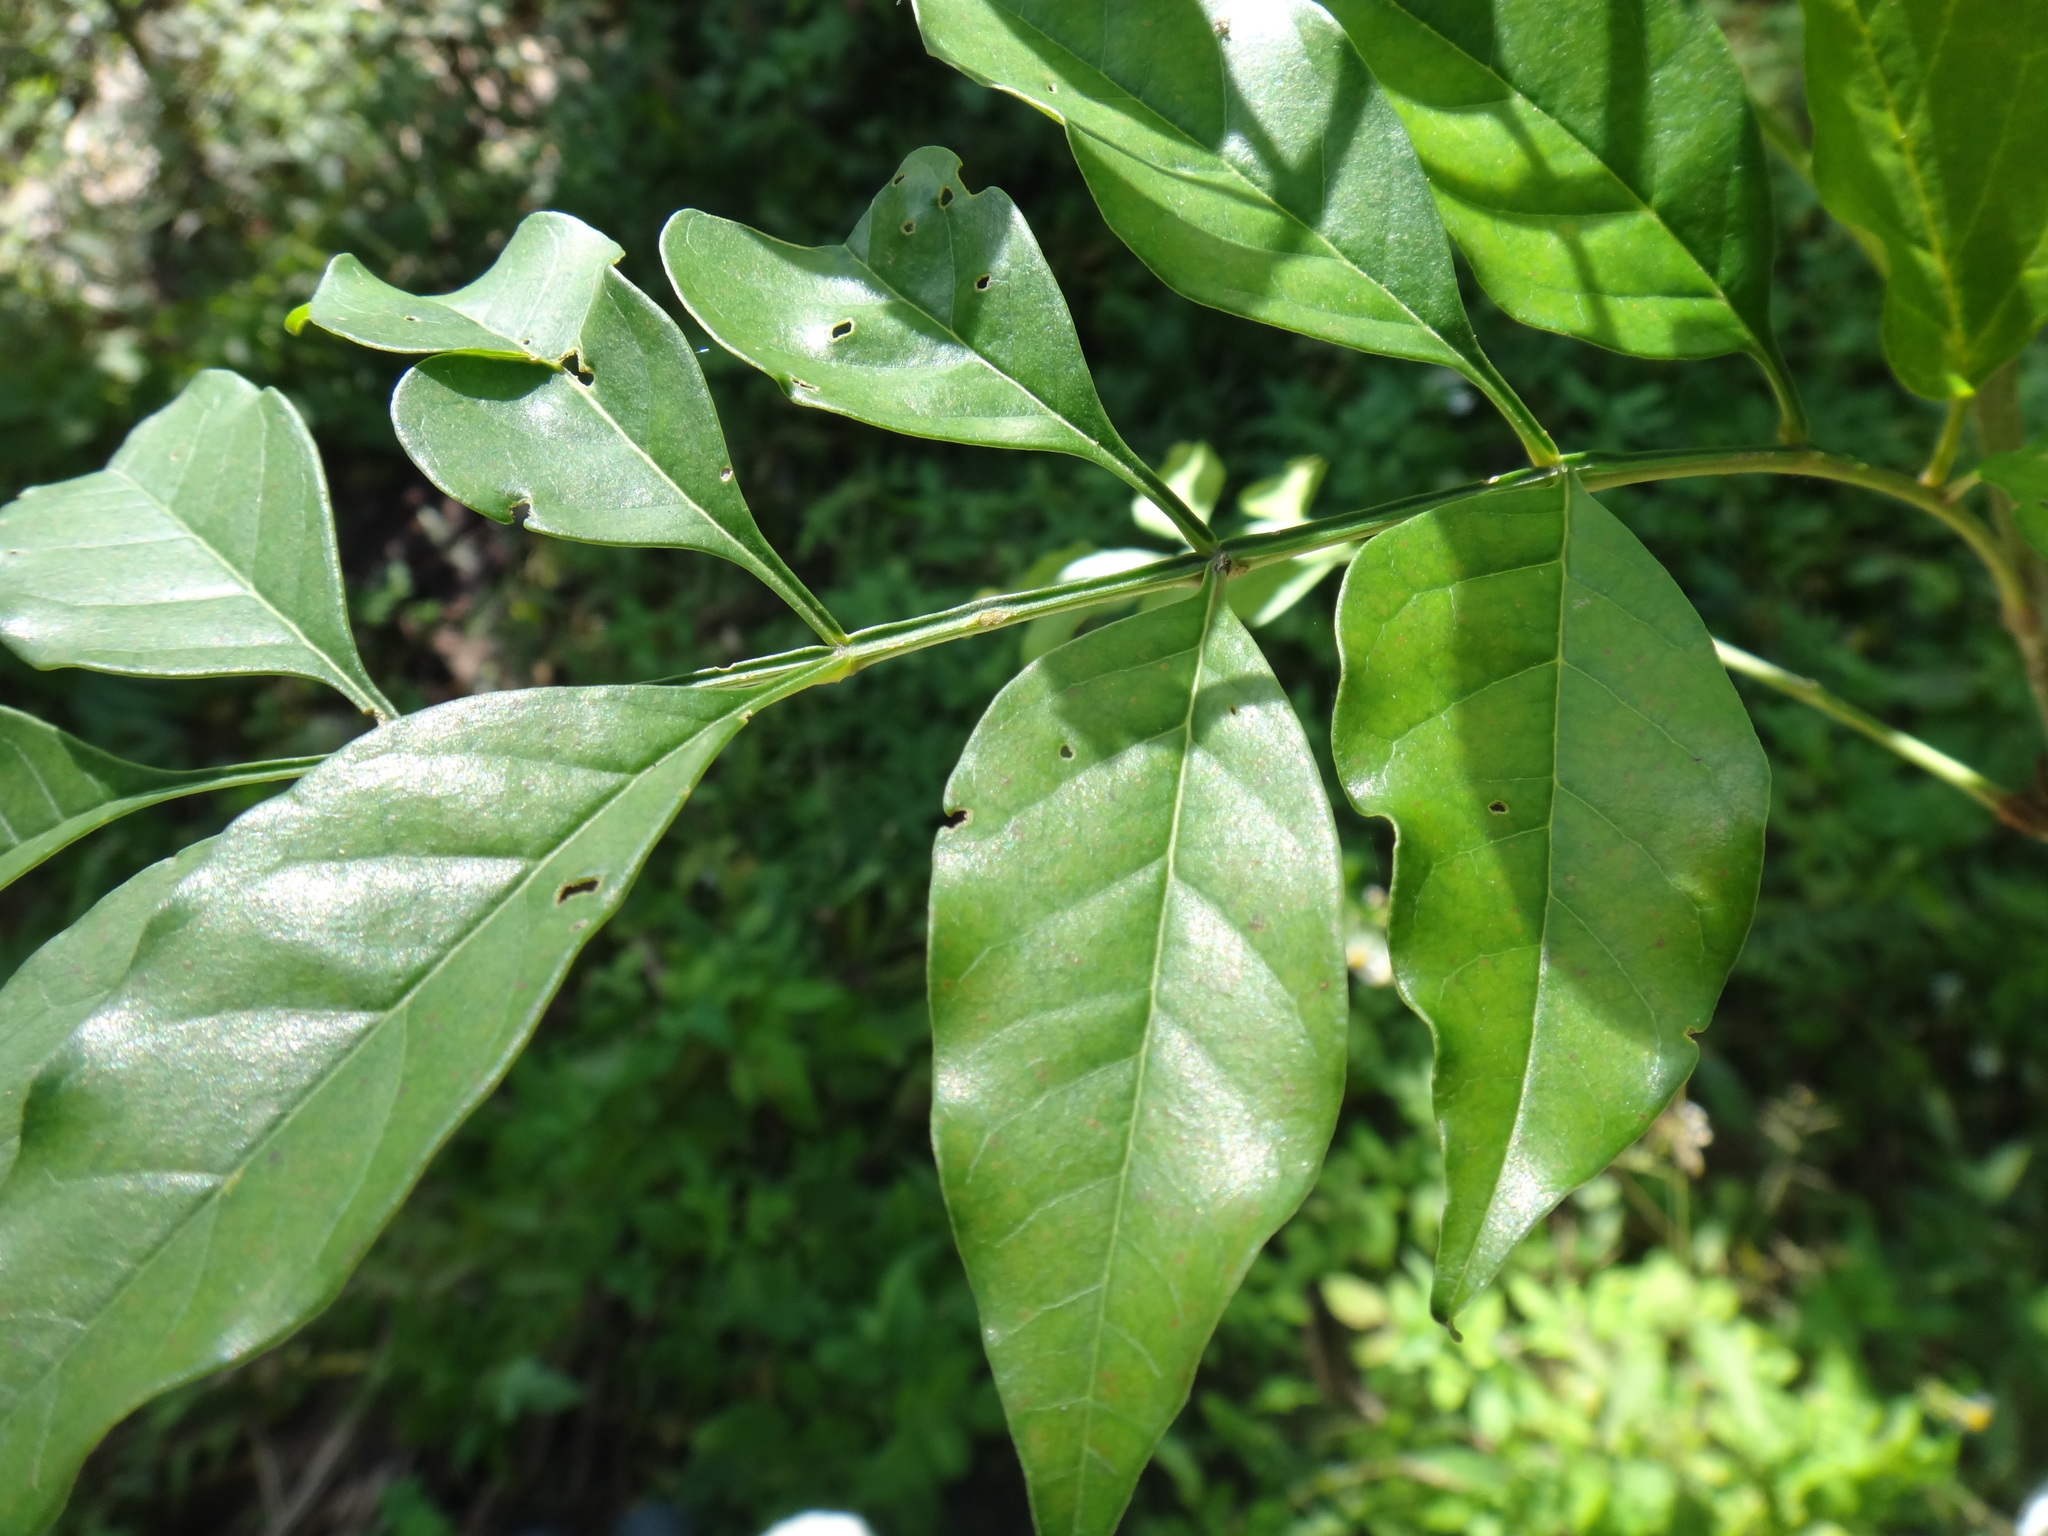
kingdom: Plantae
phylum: Tracheophyta
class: Magnoliopsida
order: Lamiales
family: Oleaceae
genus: Fraxinus
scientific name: Fraxinus griffithii
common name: Himalayan ash
